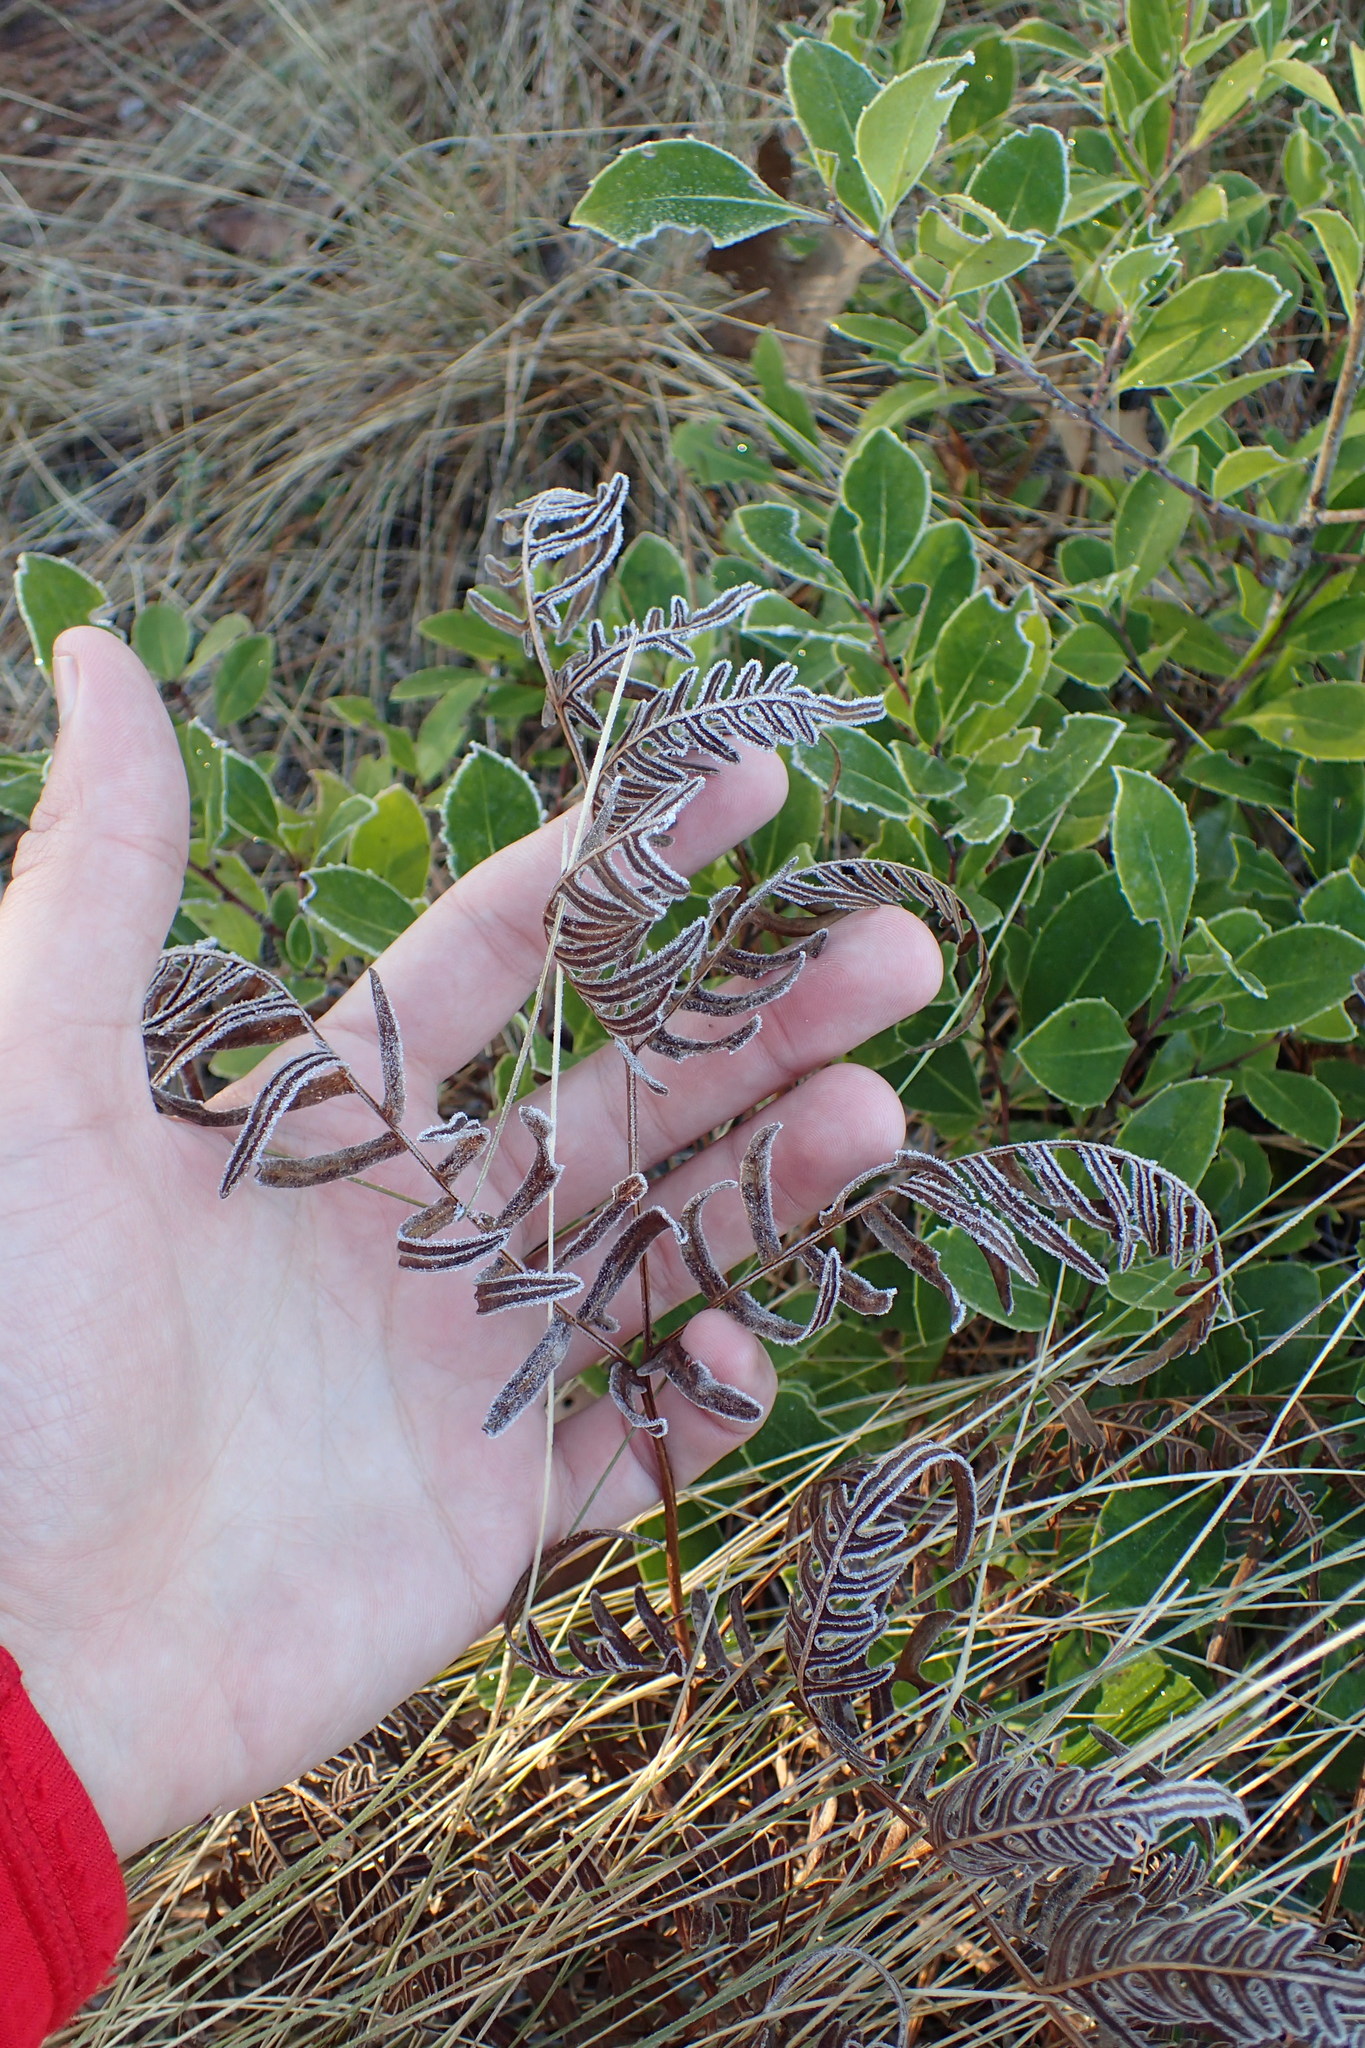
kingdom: Plantae
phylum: Tracheophyta
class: Polypodiopsida
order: Polypodiales
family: Dennstaedtiaceae
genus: Pteridium
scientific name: Pteridium aquilinum
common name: Bracken
